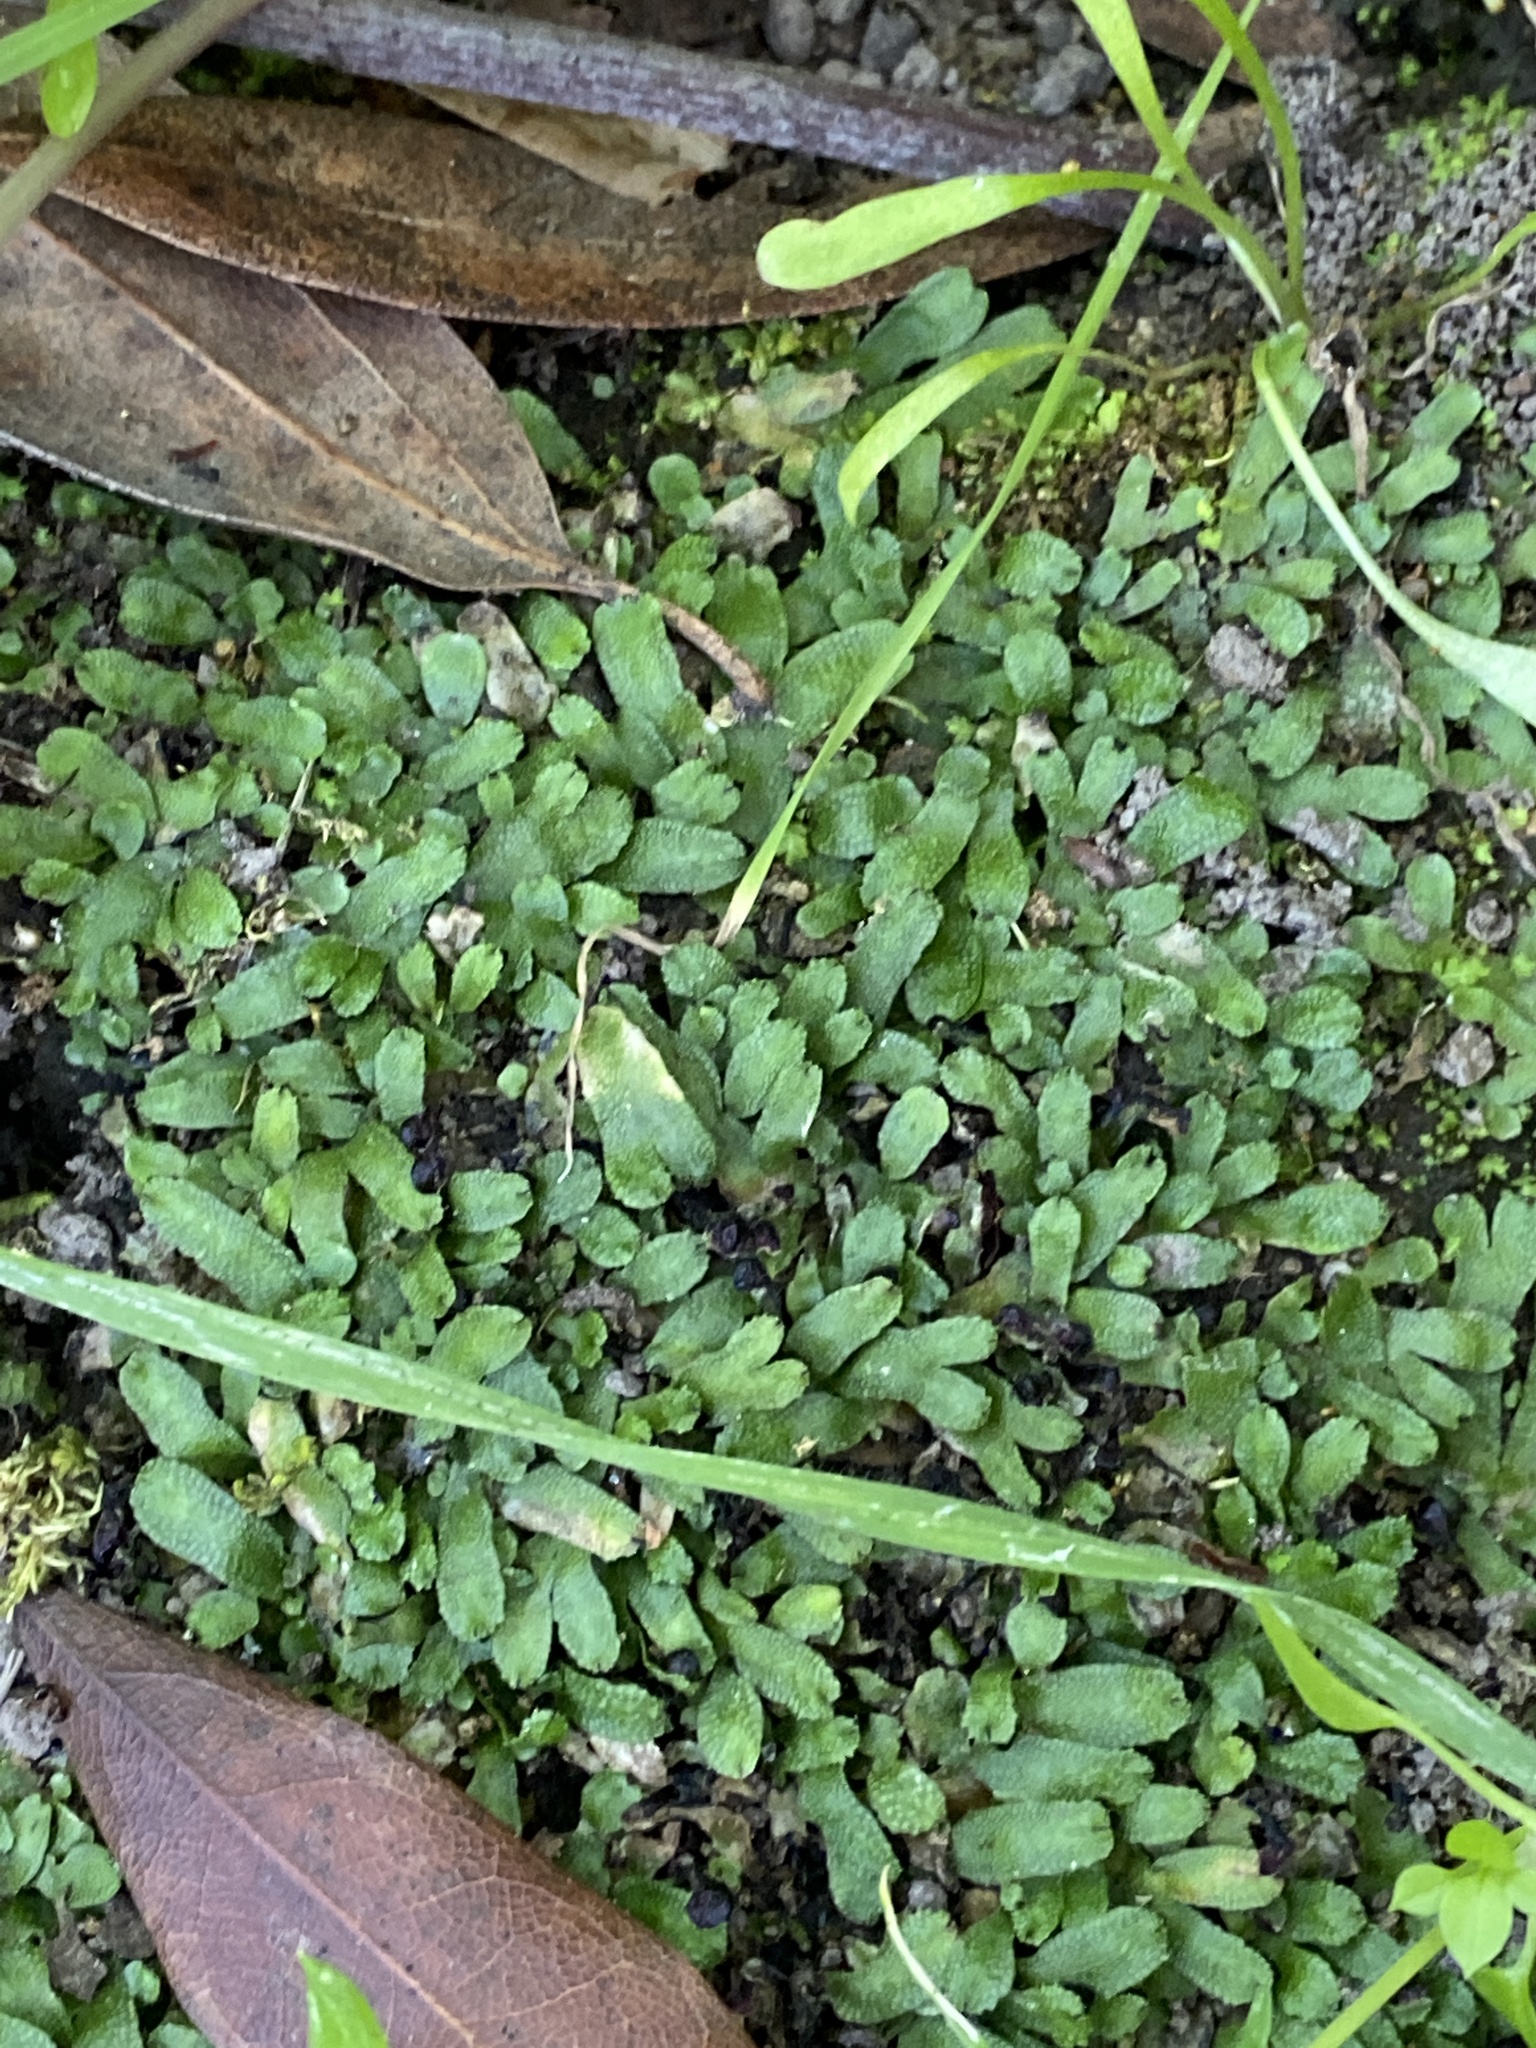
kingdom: Plantae
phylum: Marchantiophyta
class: Marchantiopsida
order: Marchantiales
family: Targioniaceae
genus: Targionia
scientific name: Targionia hypophylla
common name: Orobus-seed liverwort
